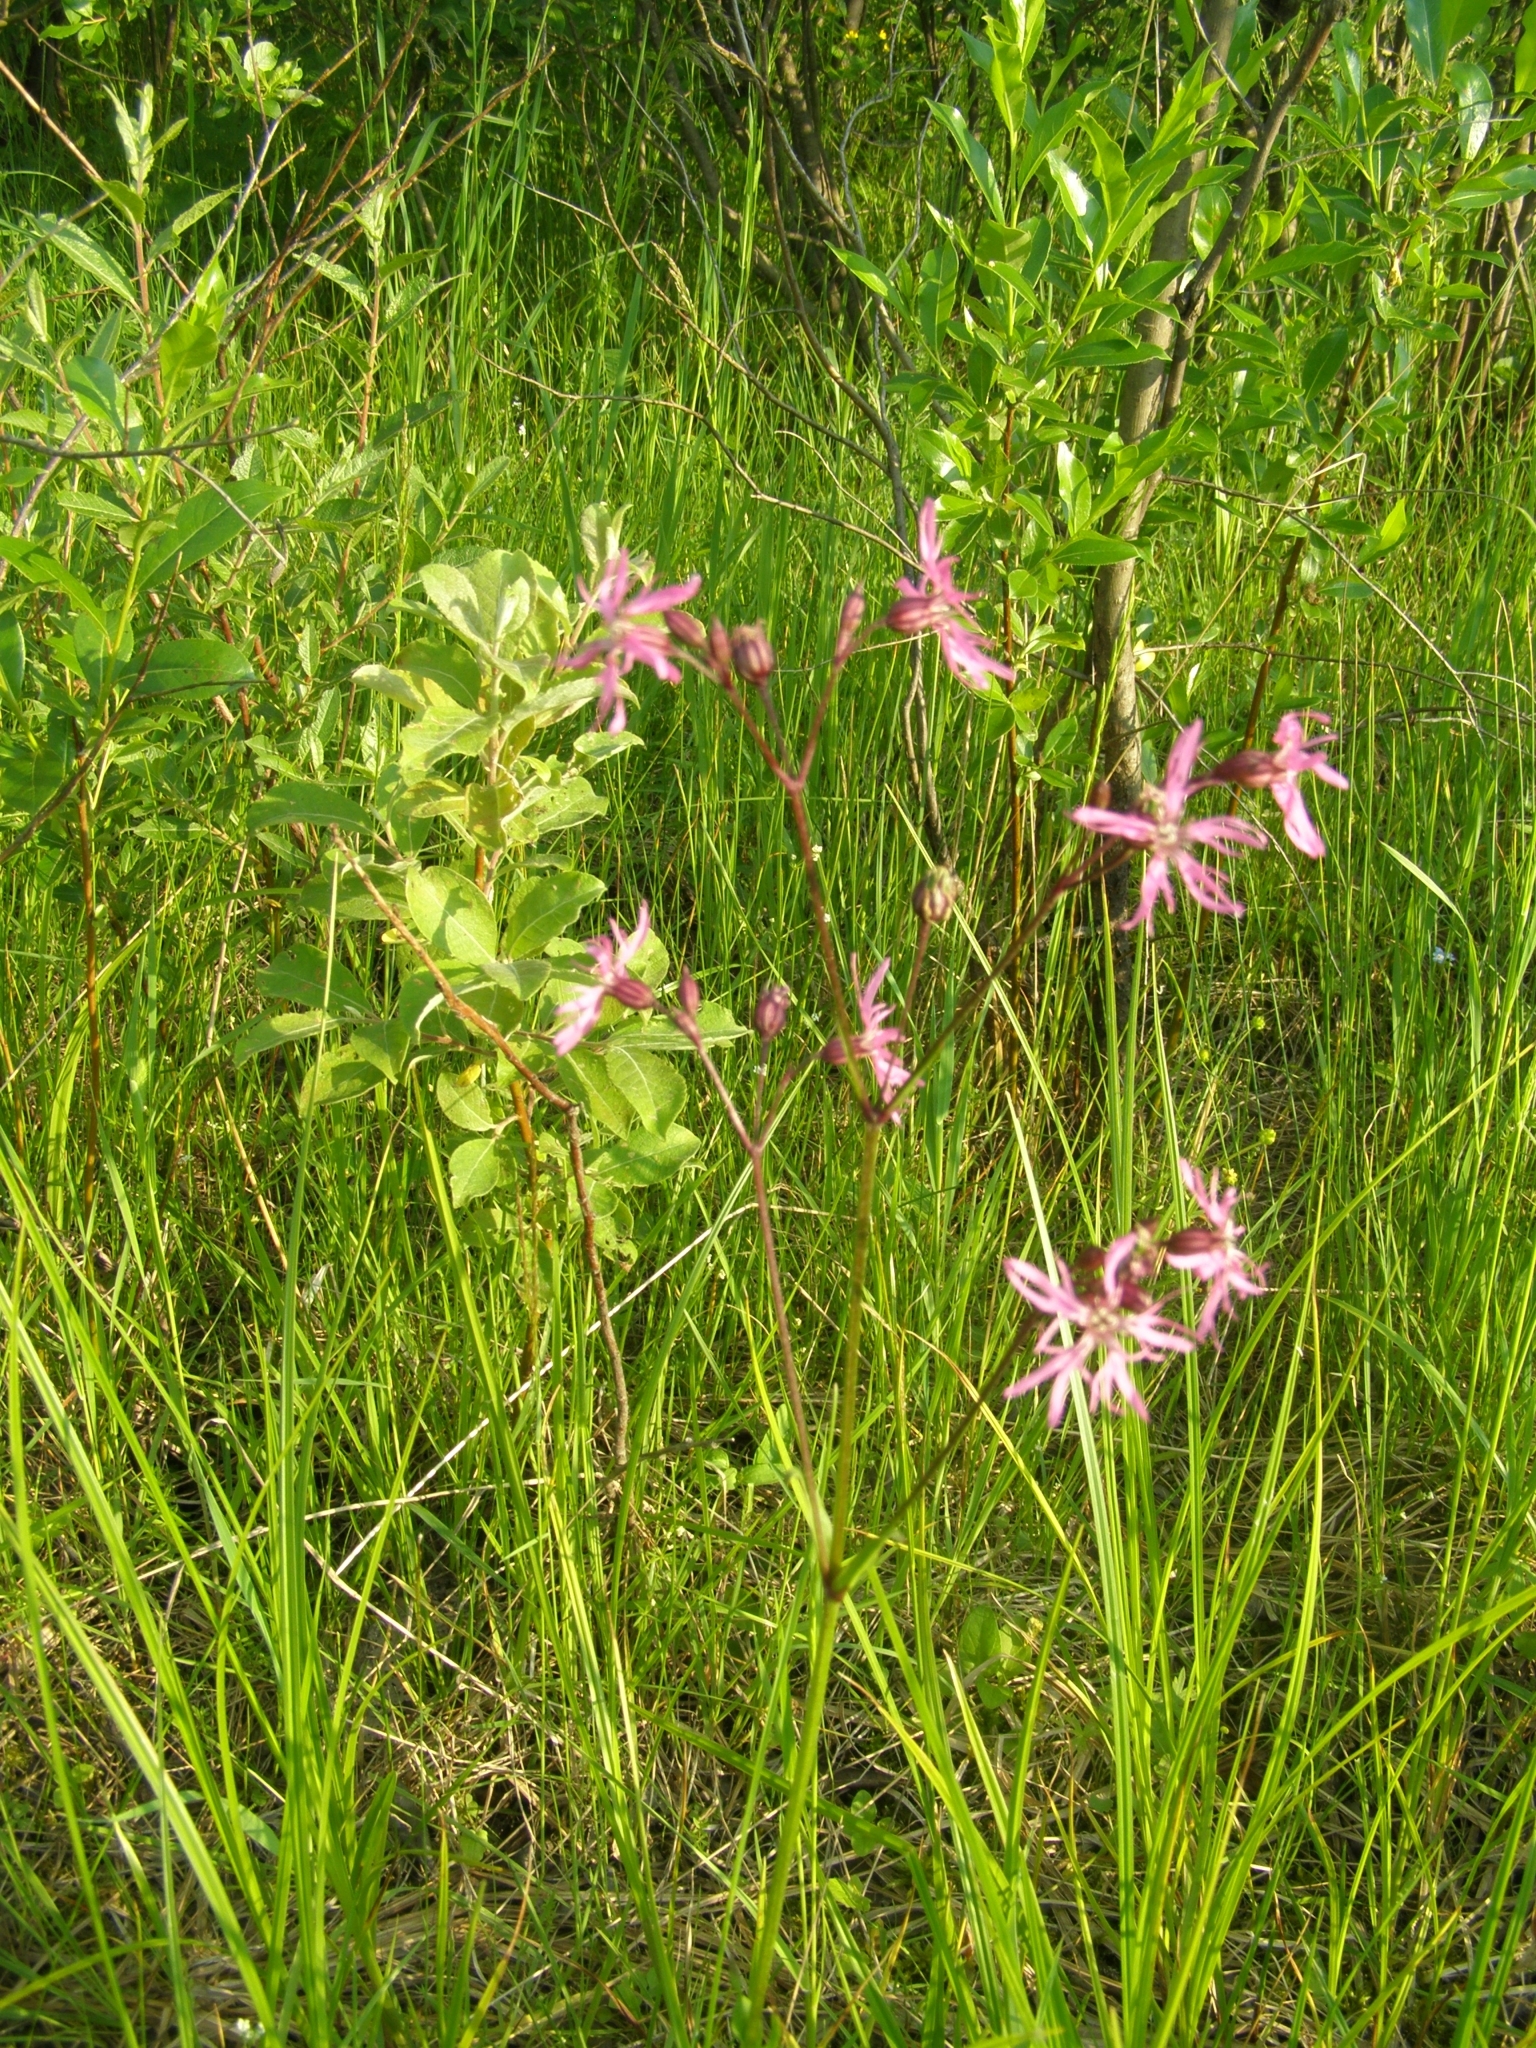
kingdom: Plantae
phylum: Tracheophyta
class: Magnoliopsida
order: Caryophyllales
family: Caryophyllaceae
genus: Silene
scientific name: Silene flos-cuculi
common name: Ragged-robin
